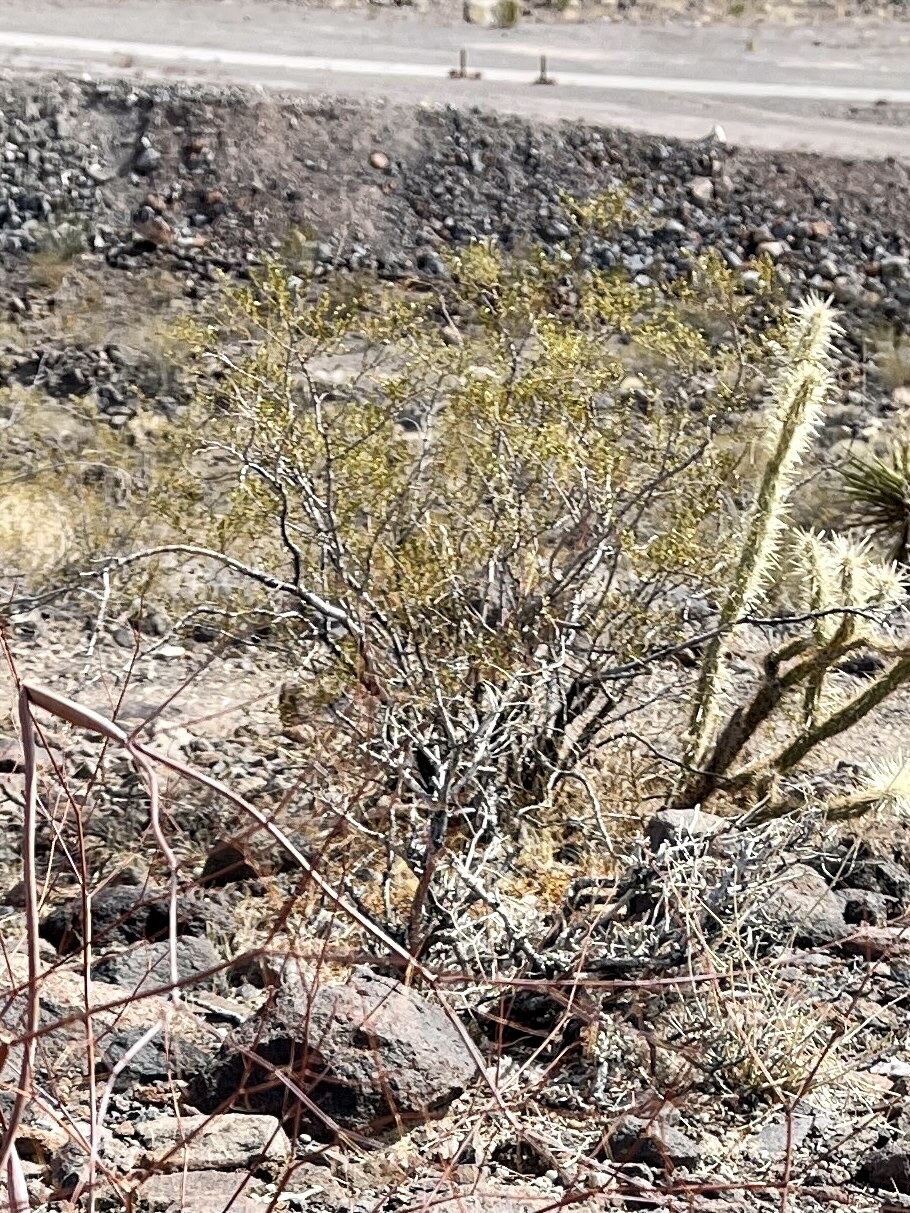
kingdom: Plantae
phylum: Tracheophyta
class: Magnoliopsida
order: Zygophyllales
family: Zygophyllaceae
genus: Larrea
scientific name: Larrea tridentata
